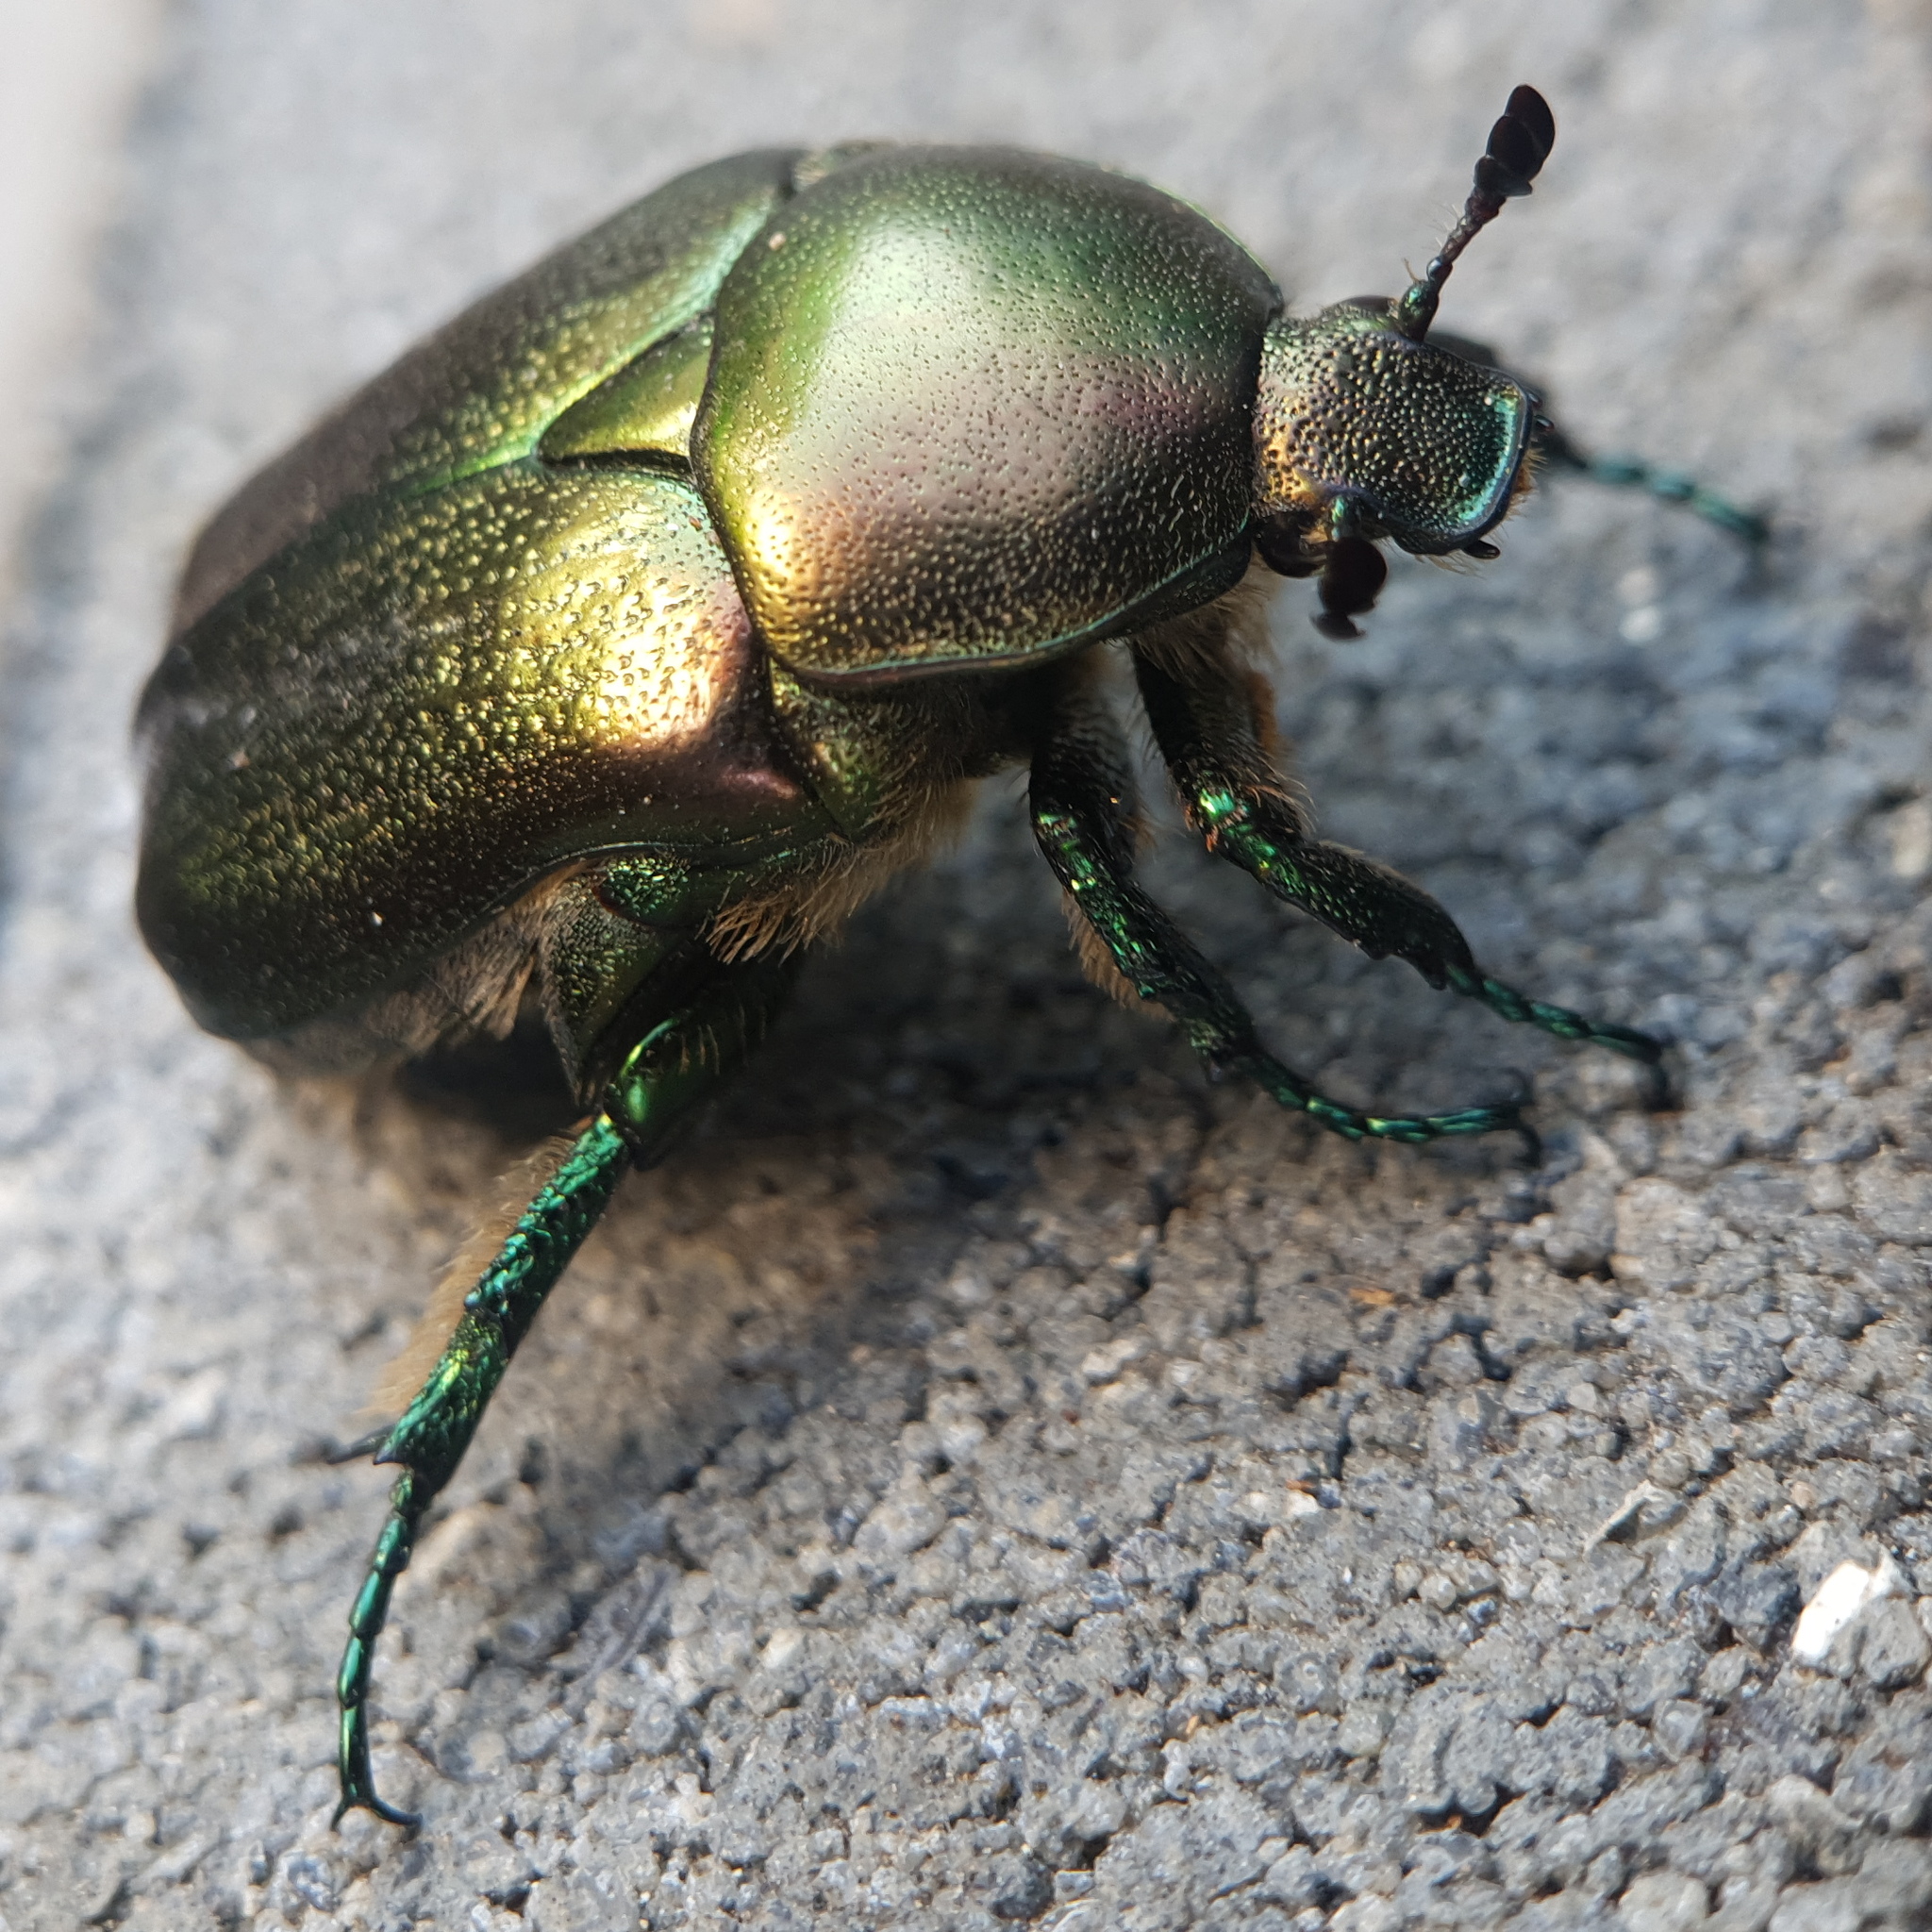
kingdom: Animalia
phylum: Arthropoda
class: Insecta
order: Coleoptera
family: Scarabaeidae
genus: Protaetia
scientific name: Protaetia judith
